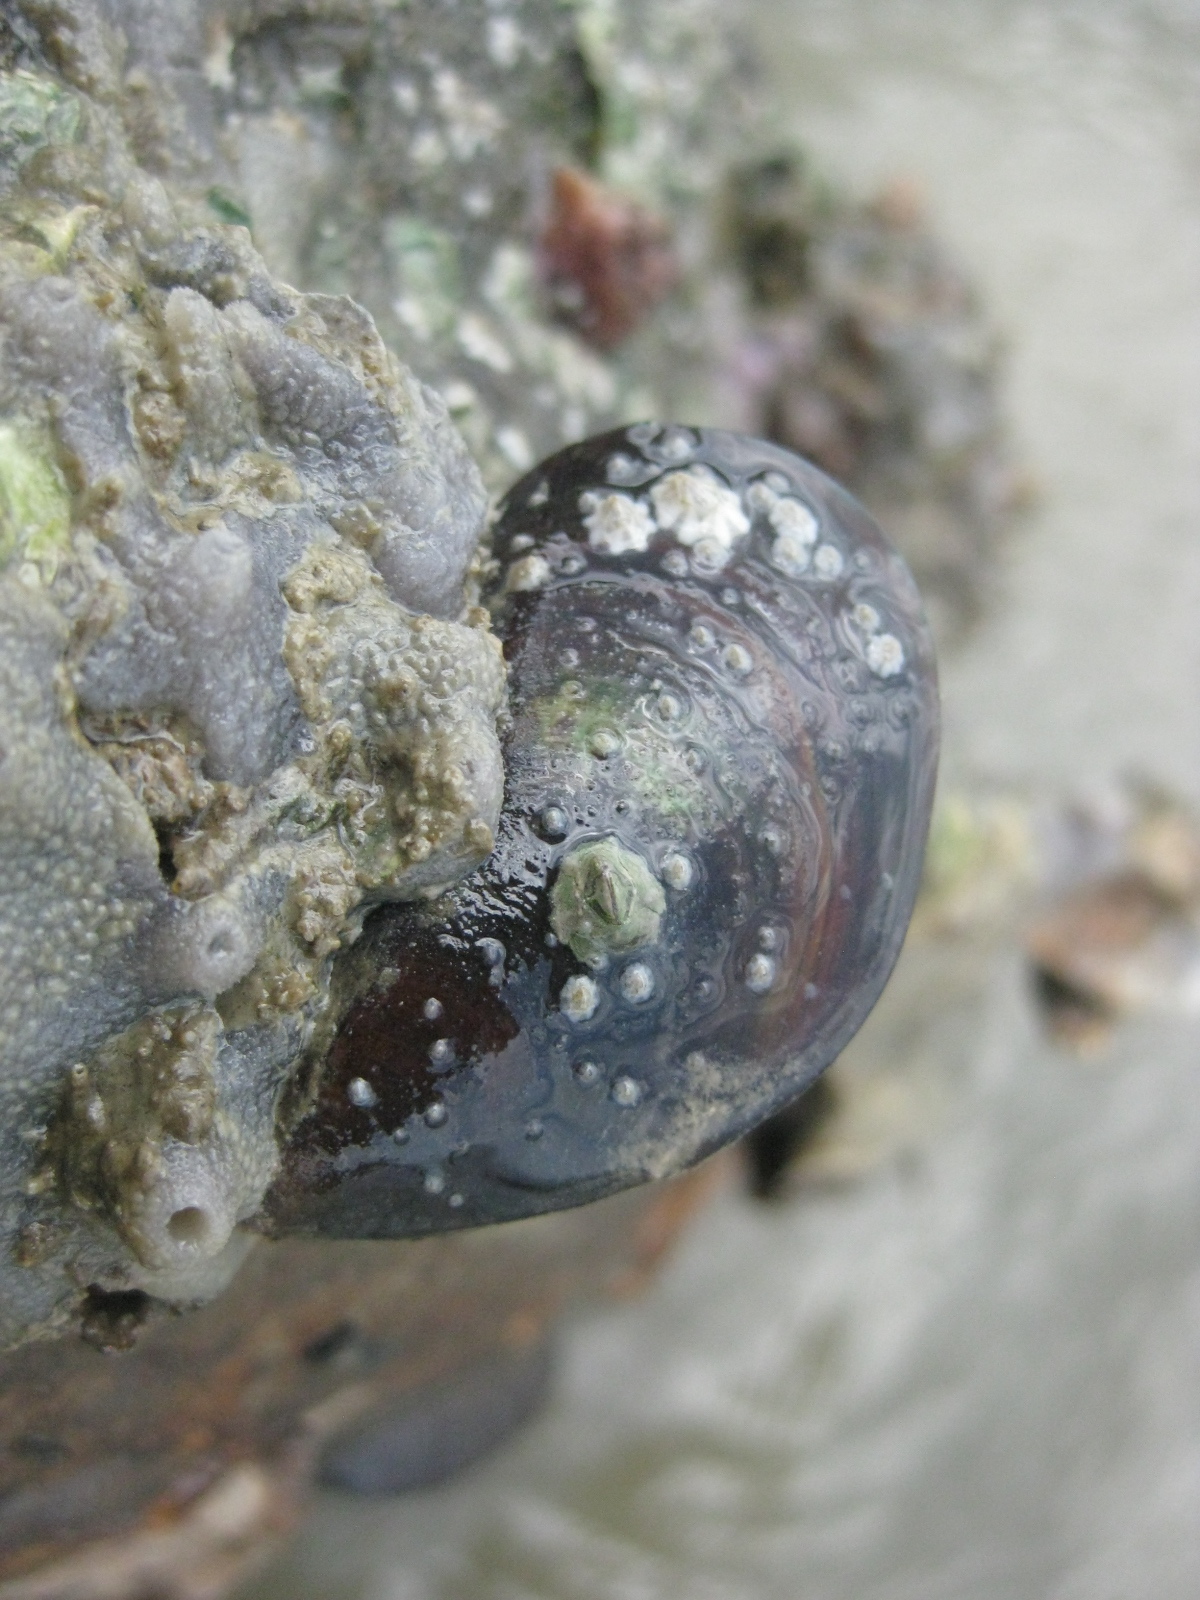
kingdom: Animalia
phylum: Mollusca
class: Bivalvia
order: Mytilida
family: Mytilidae
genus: Perna
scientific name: Perna canaliculus
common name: New zealand greenshelltm
